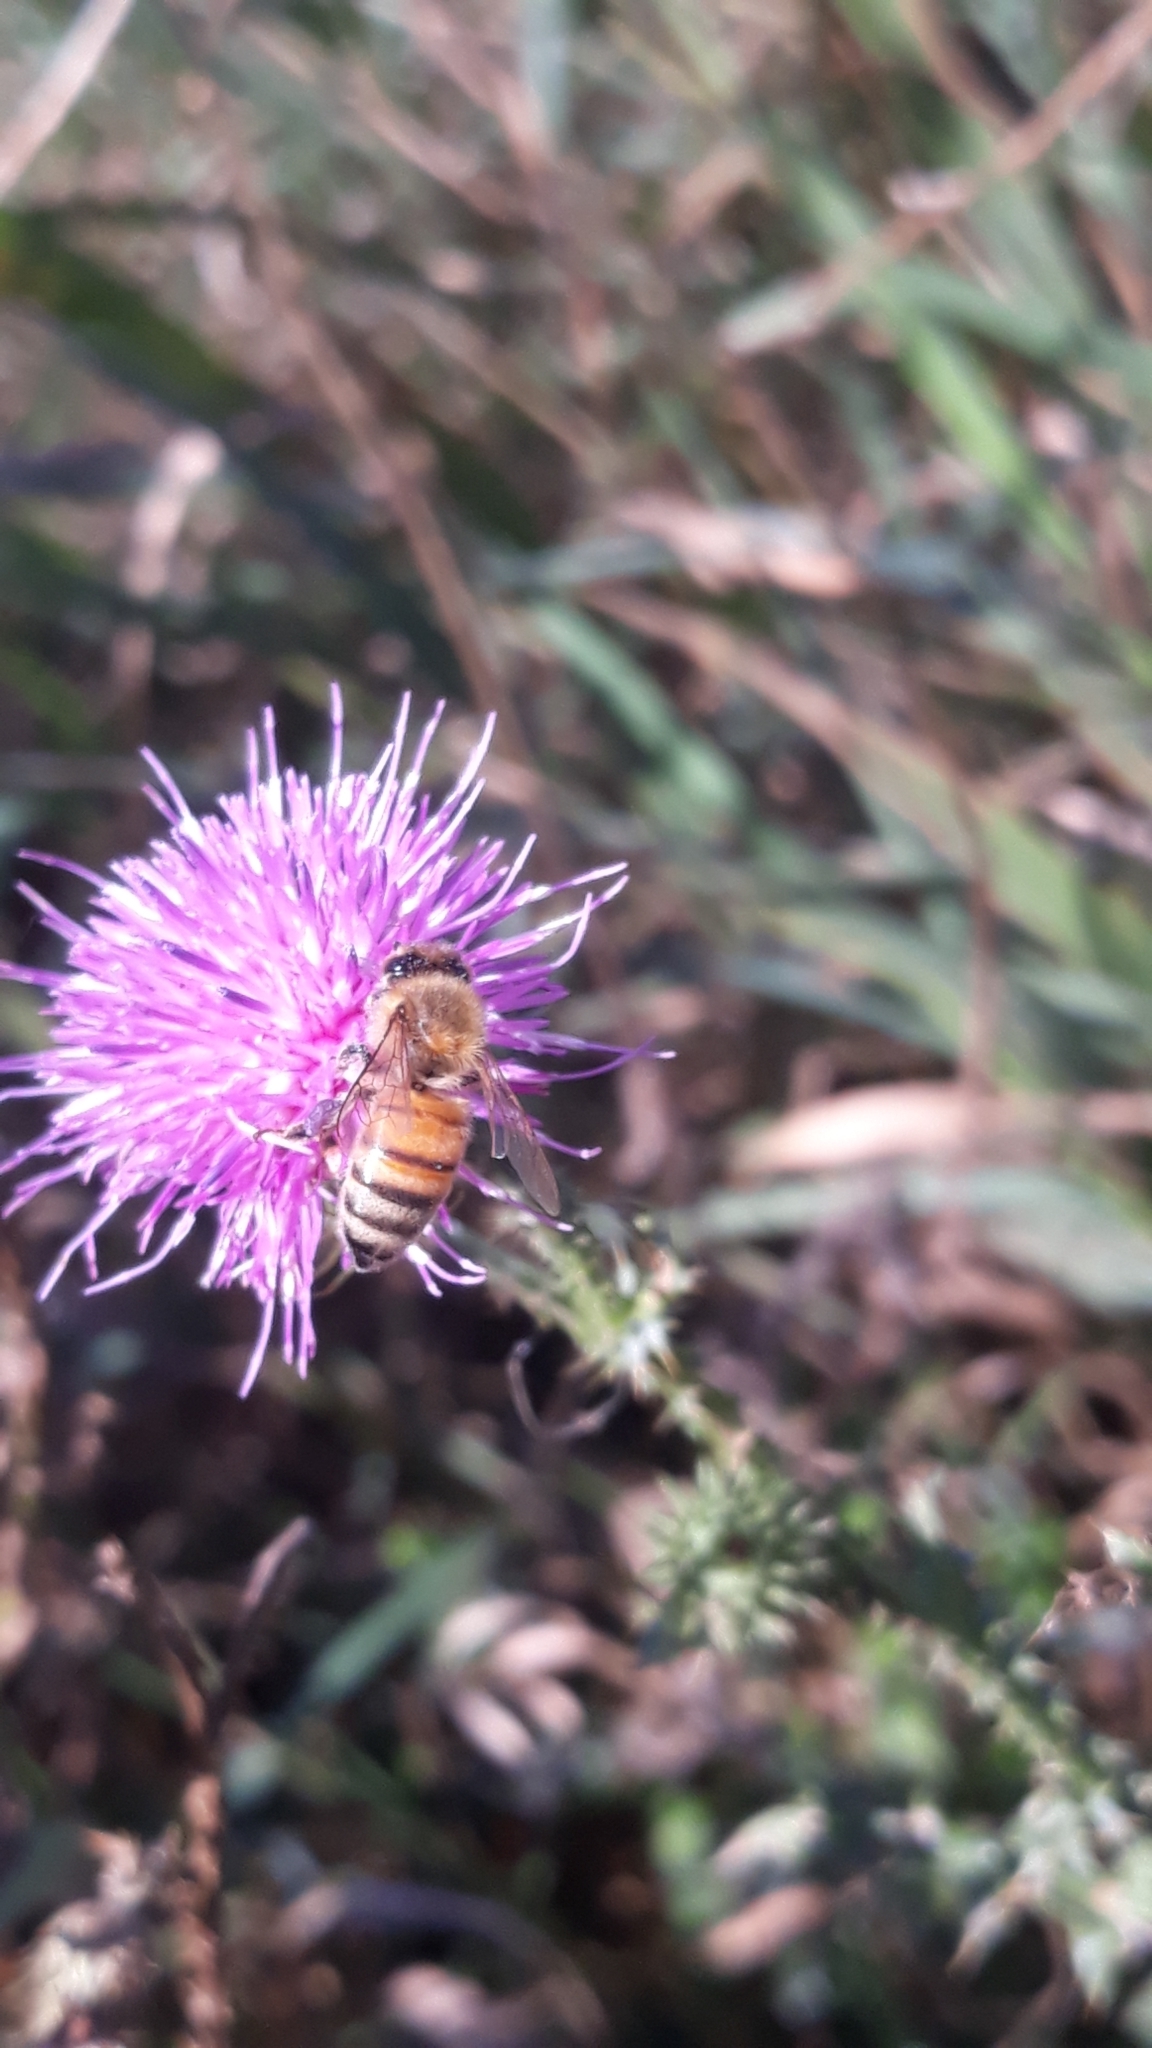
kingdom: Animalia
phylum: Arthropoda
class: Insecta
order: Hymenoptera
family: Apidae
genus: Apis
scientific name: Apis mellifera
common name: Honey bee
